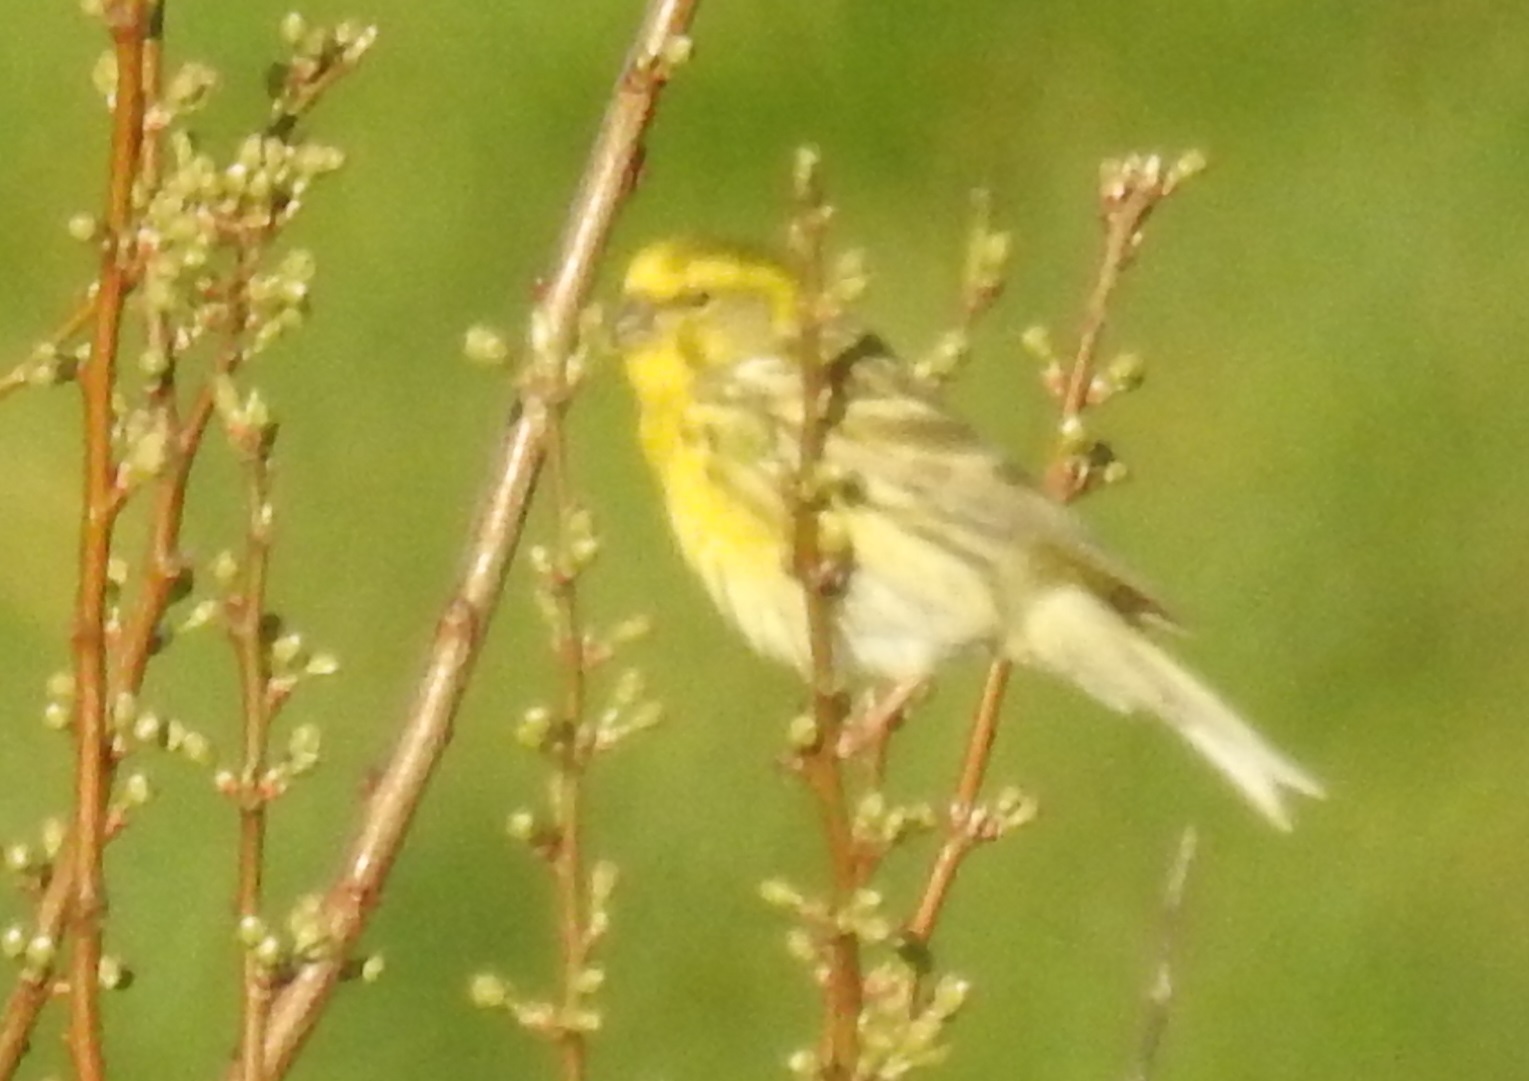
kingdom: Animalia
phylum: Chordata
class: Aves
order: Passeriformes
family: Fringillidae
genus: Serinus
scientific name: Serinus serinus
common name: European serin
